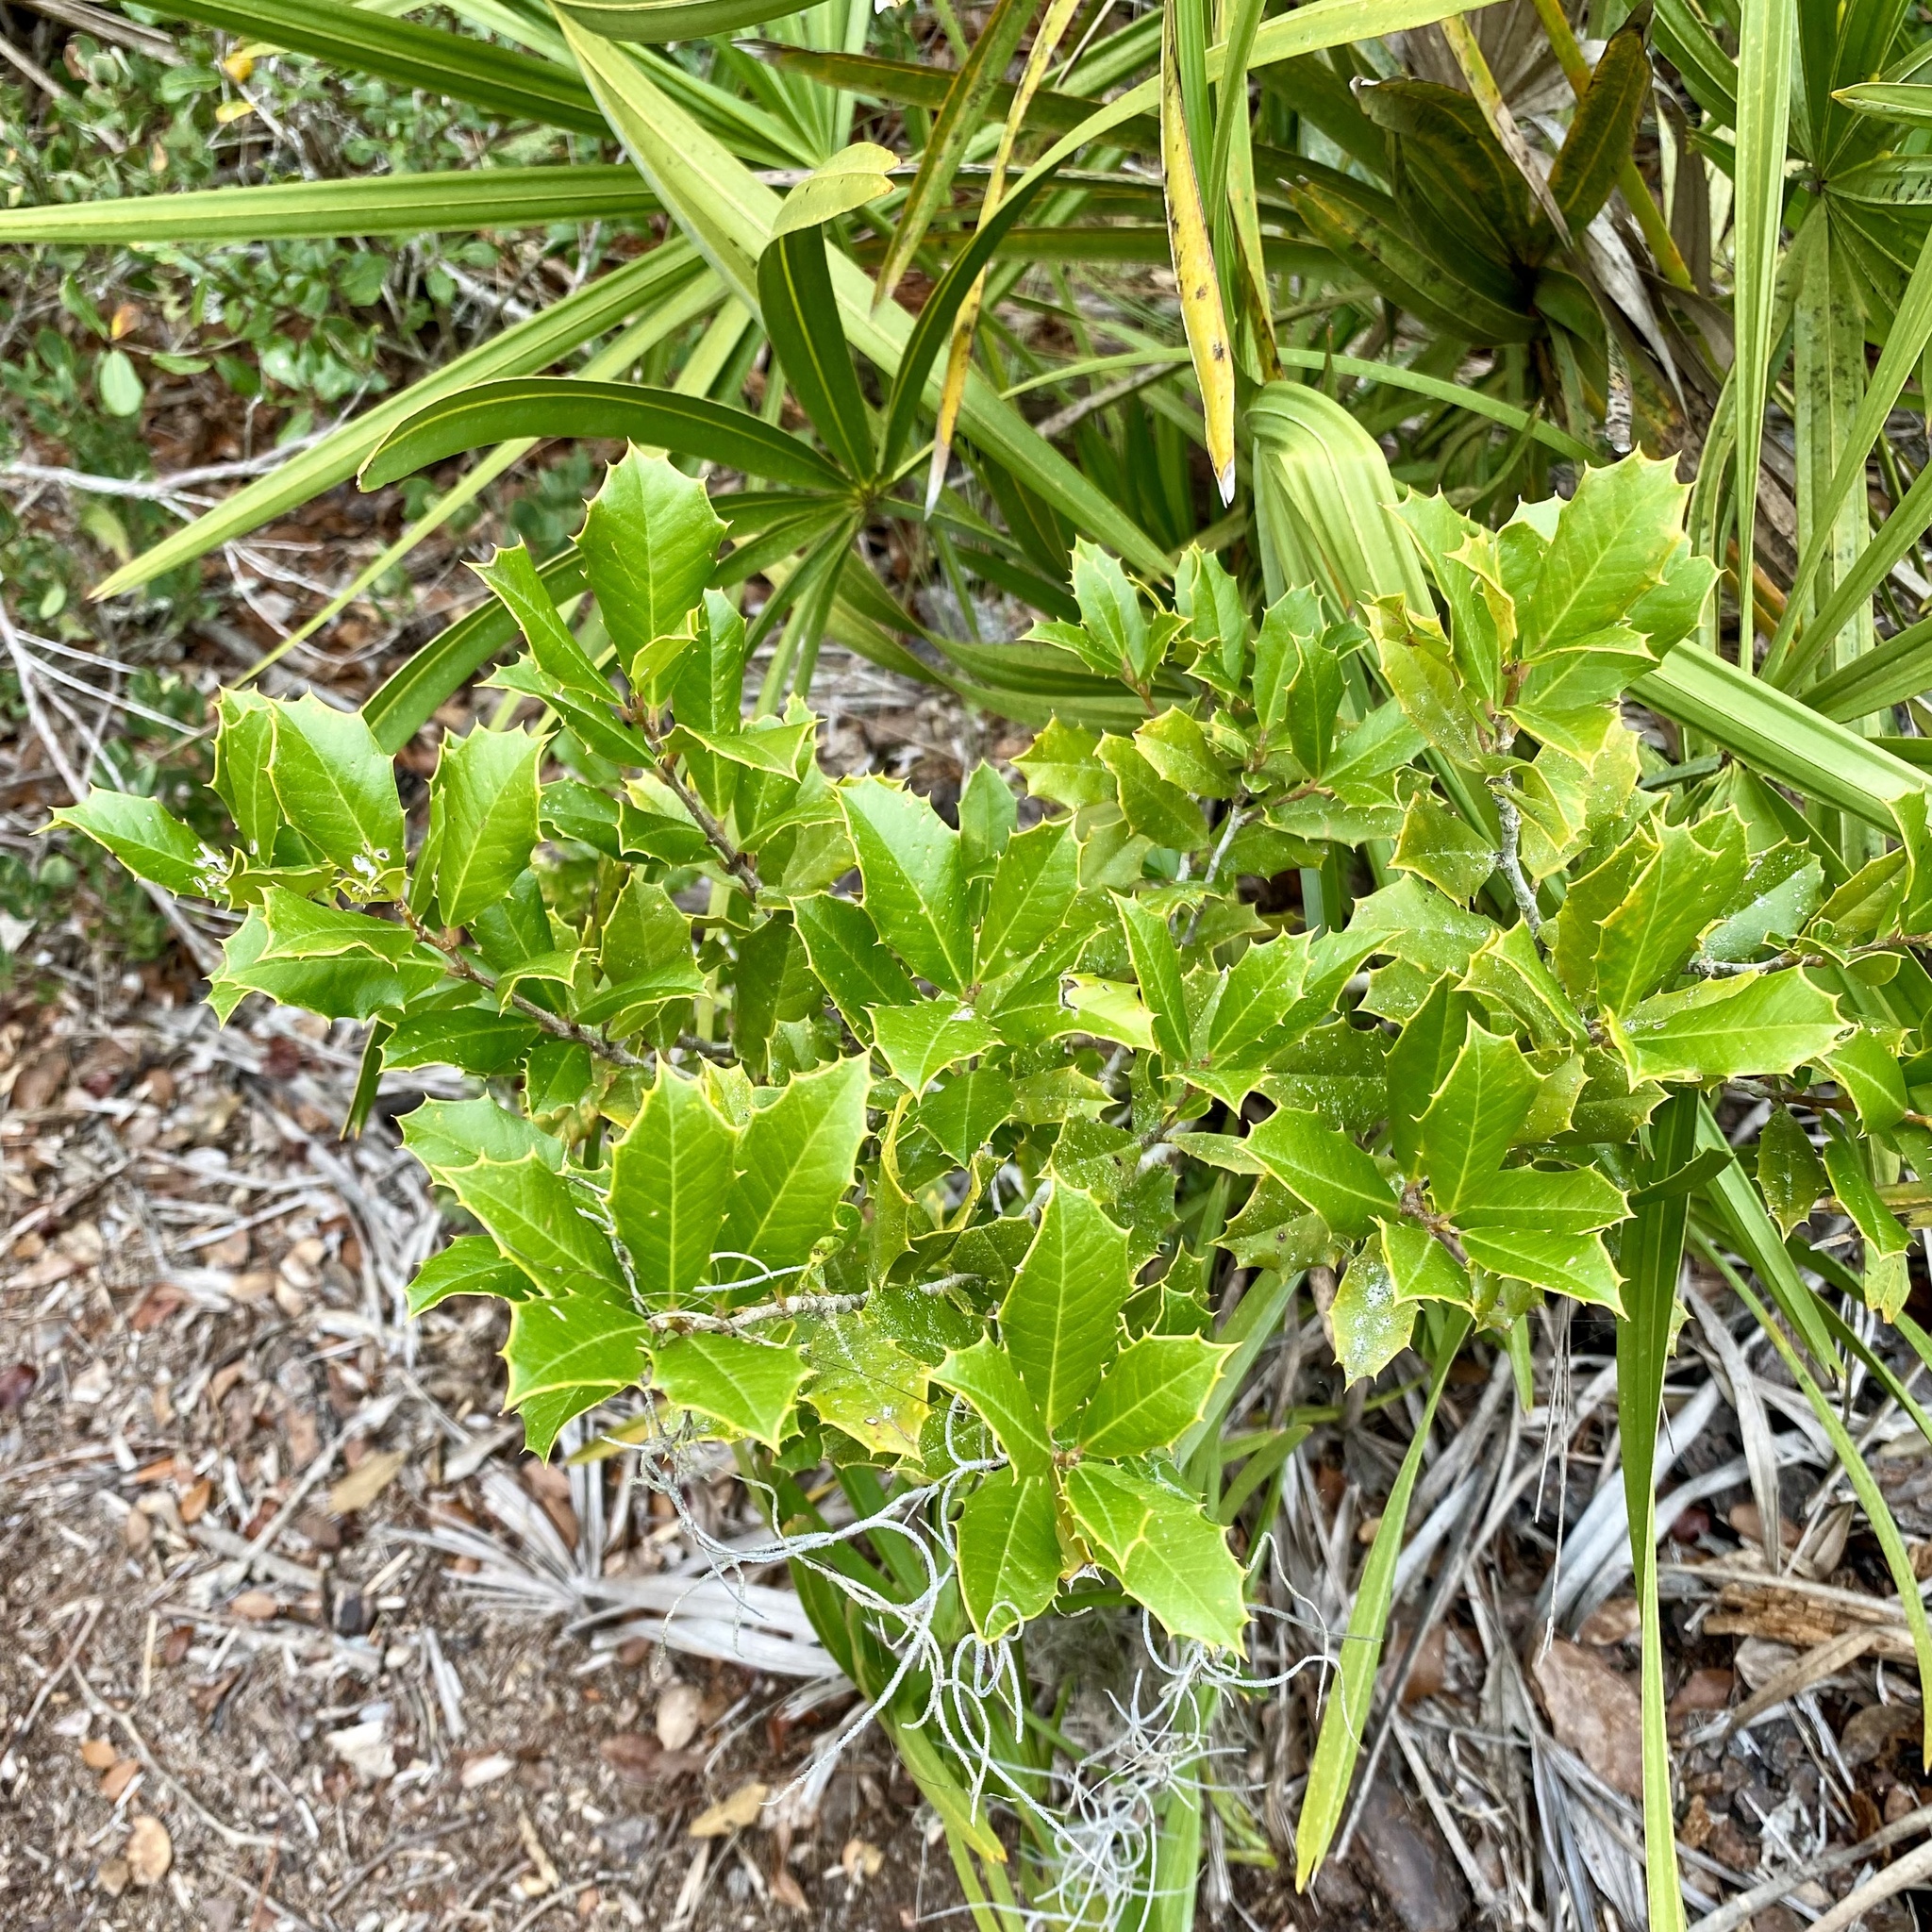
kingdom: Plantae
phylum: Tracheophyta
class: Magnoliopsida
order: Aquifoliales
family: Aquifoliaceae
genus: Ilex
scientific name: Ilex opaca
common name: American holly
